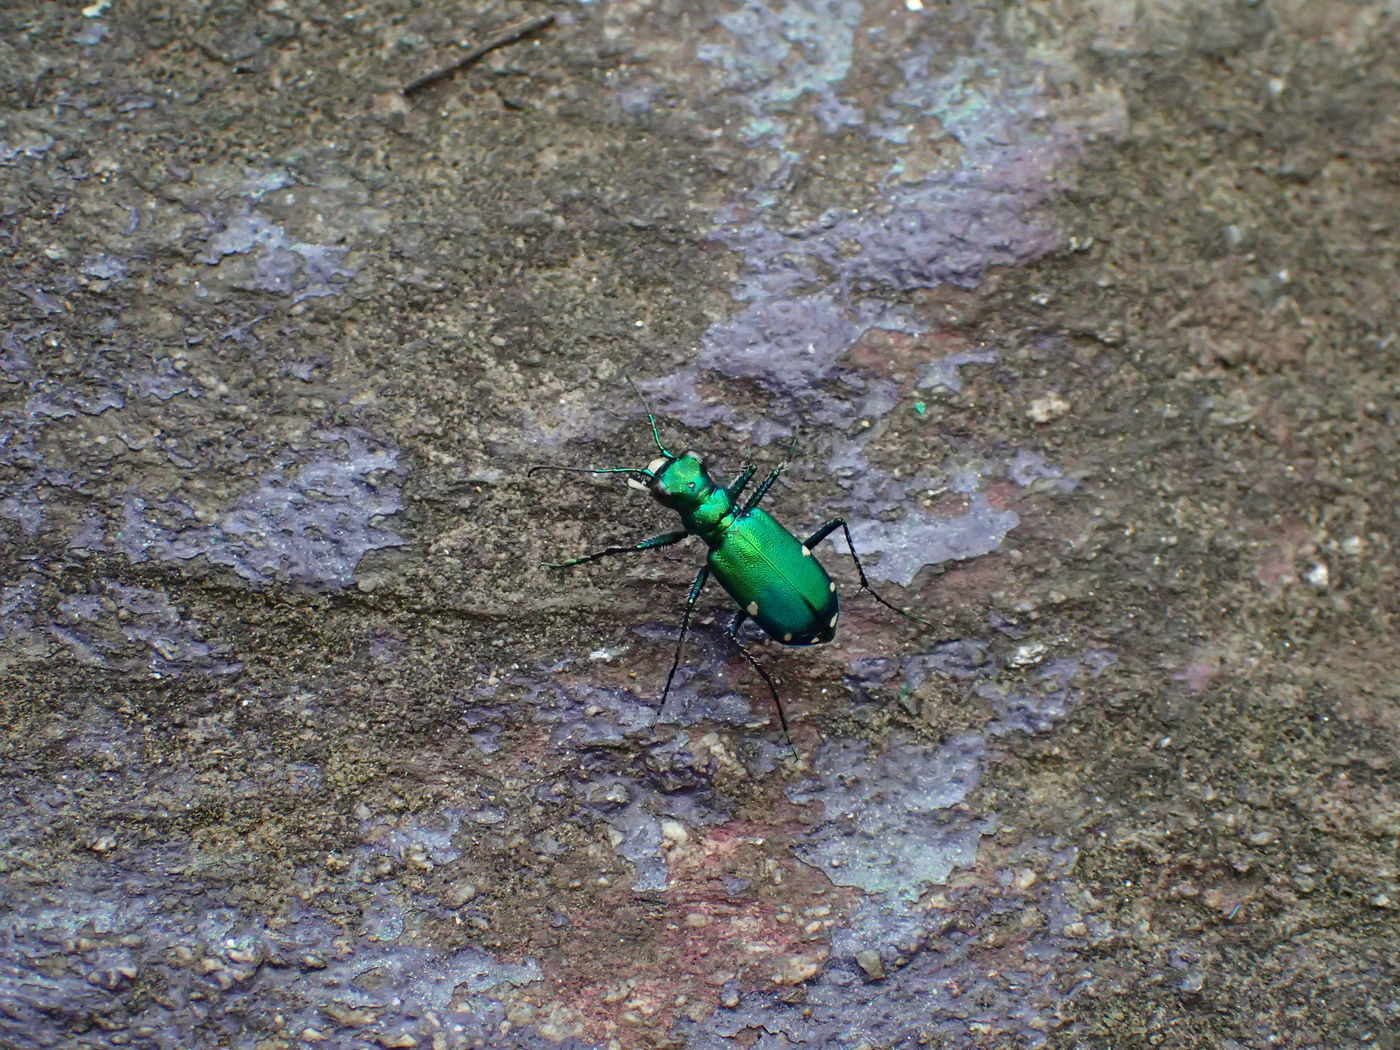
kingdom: Animalia
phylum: Arthropoda
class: Insecta
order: Coleoptera
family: Carabidae
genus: Cicindela
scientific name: Cicindela sexguttata
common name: Six-spotted tiger beetle
